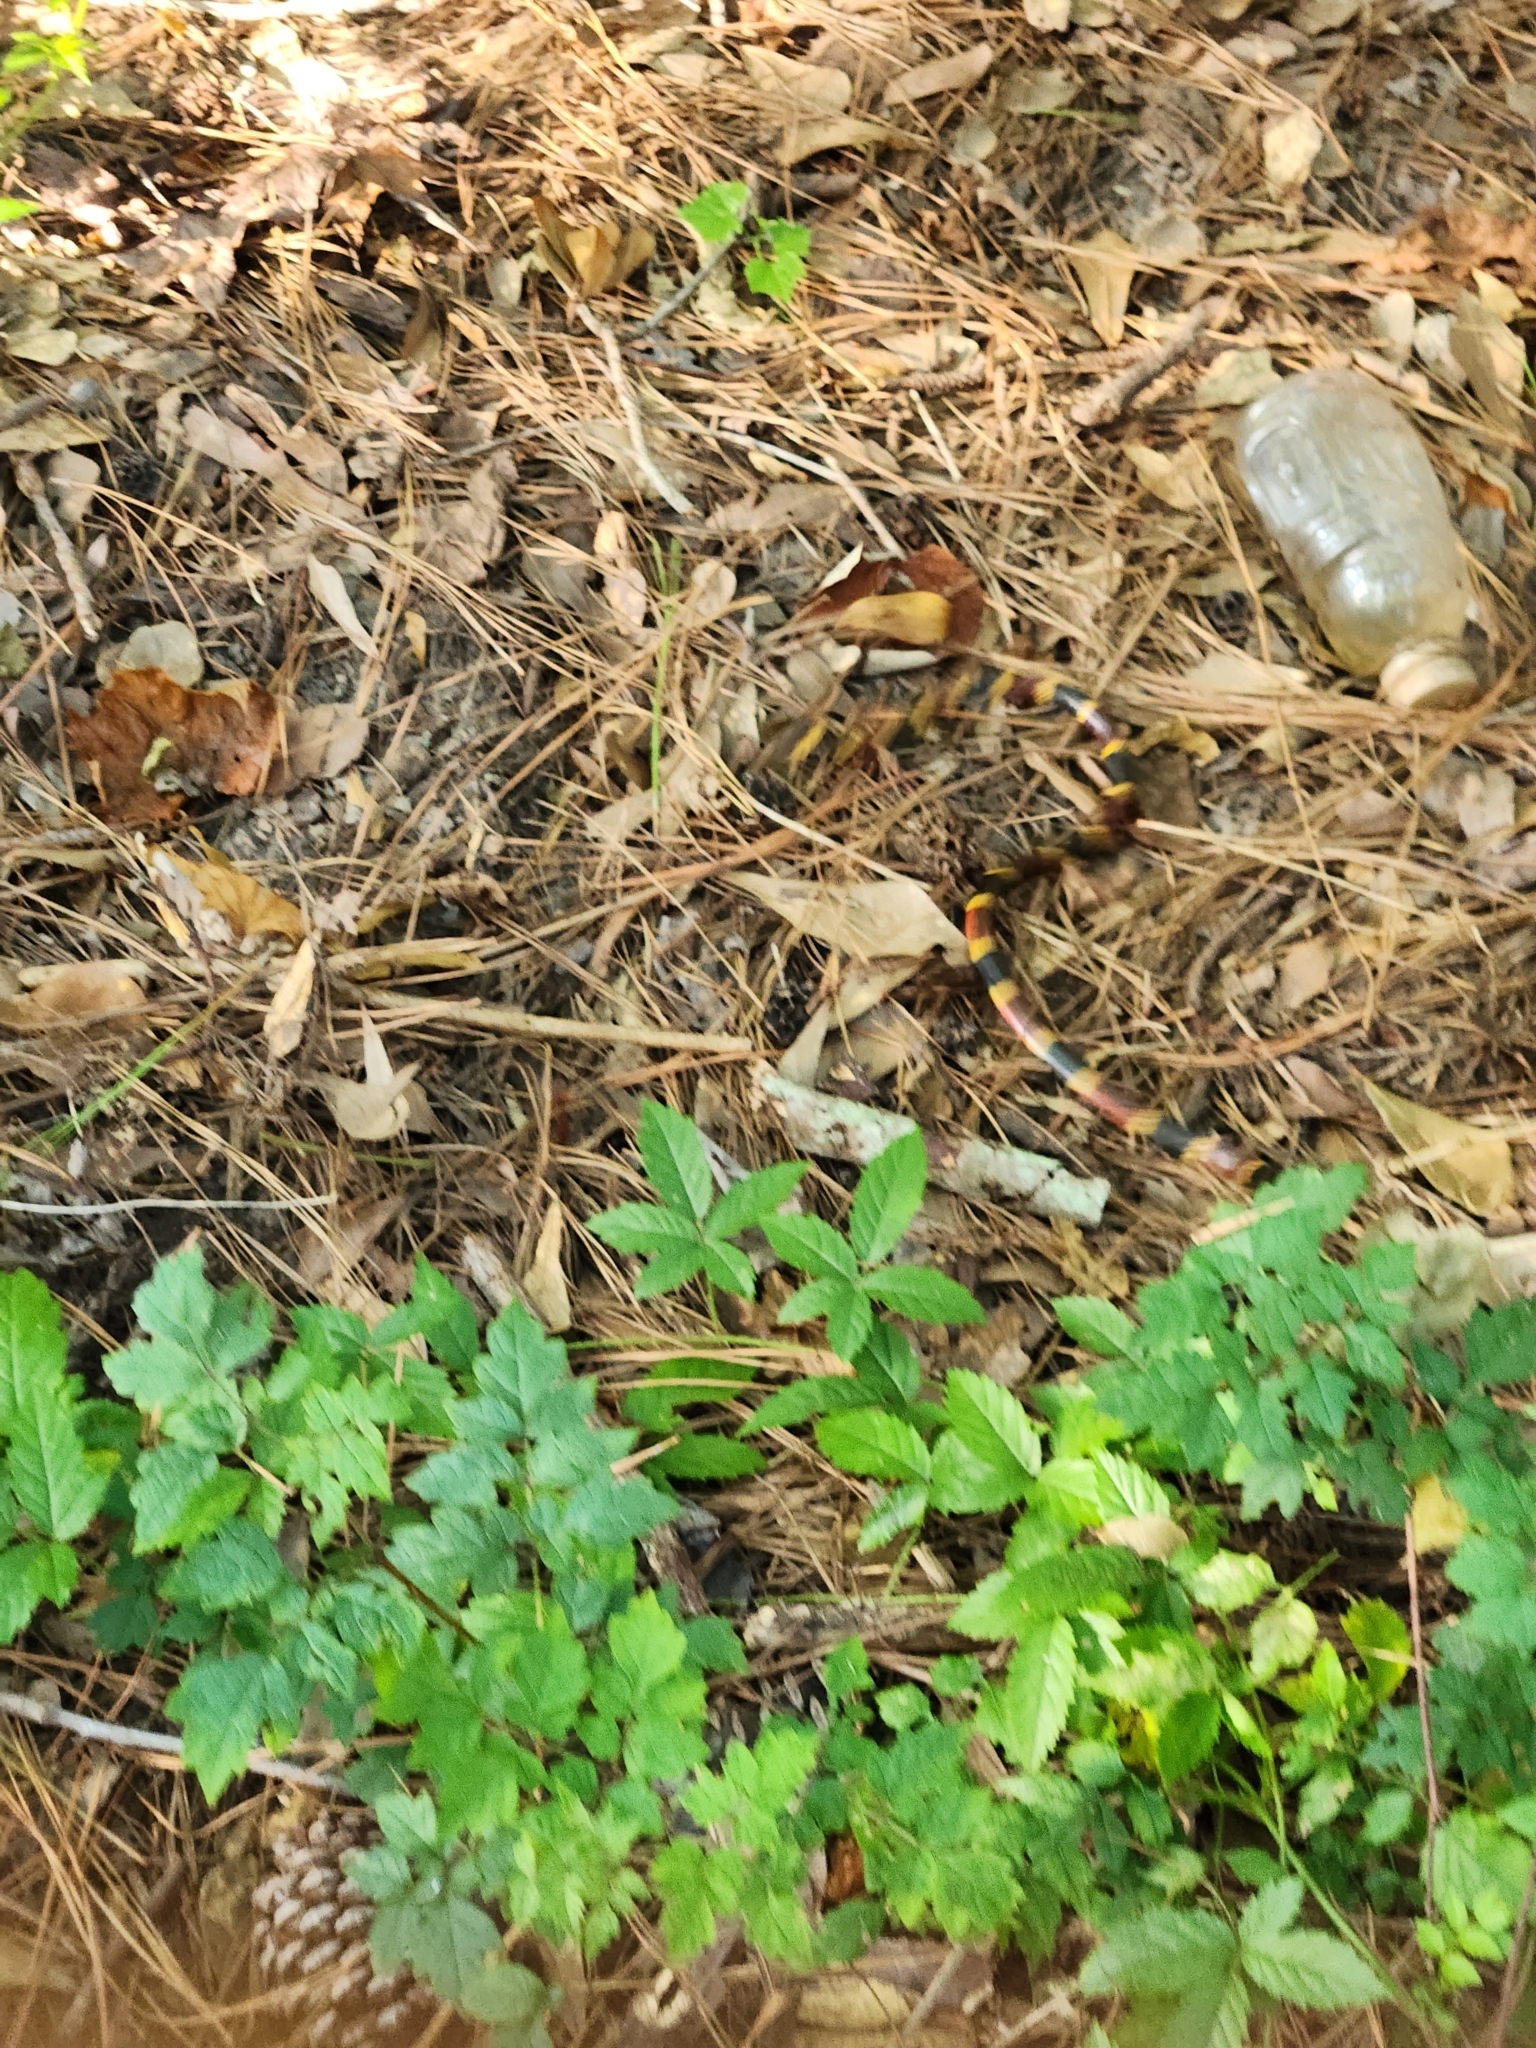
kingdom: Animalia
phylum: Chordata
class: Squamata
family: Elapidae
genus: Micrurus
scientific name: Micrurus tener
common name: Texas coral snake
